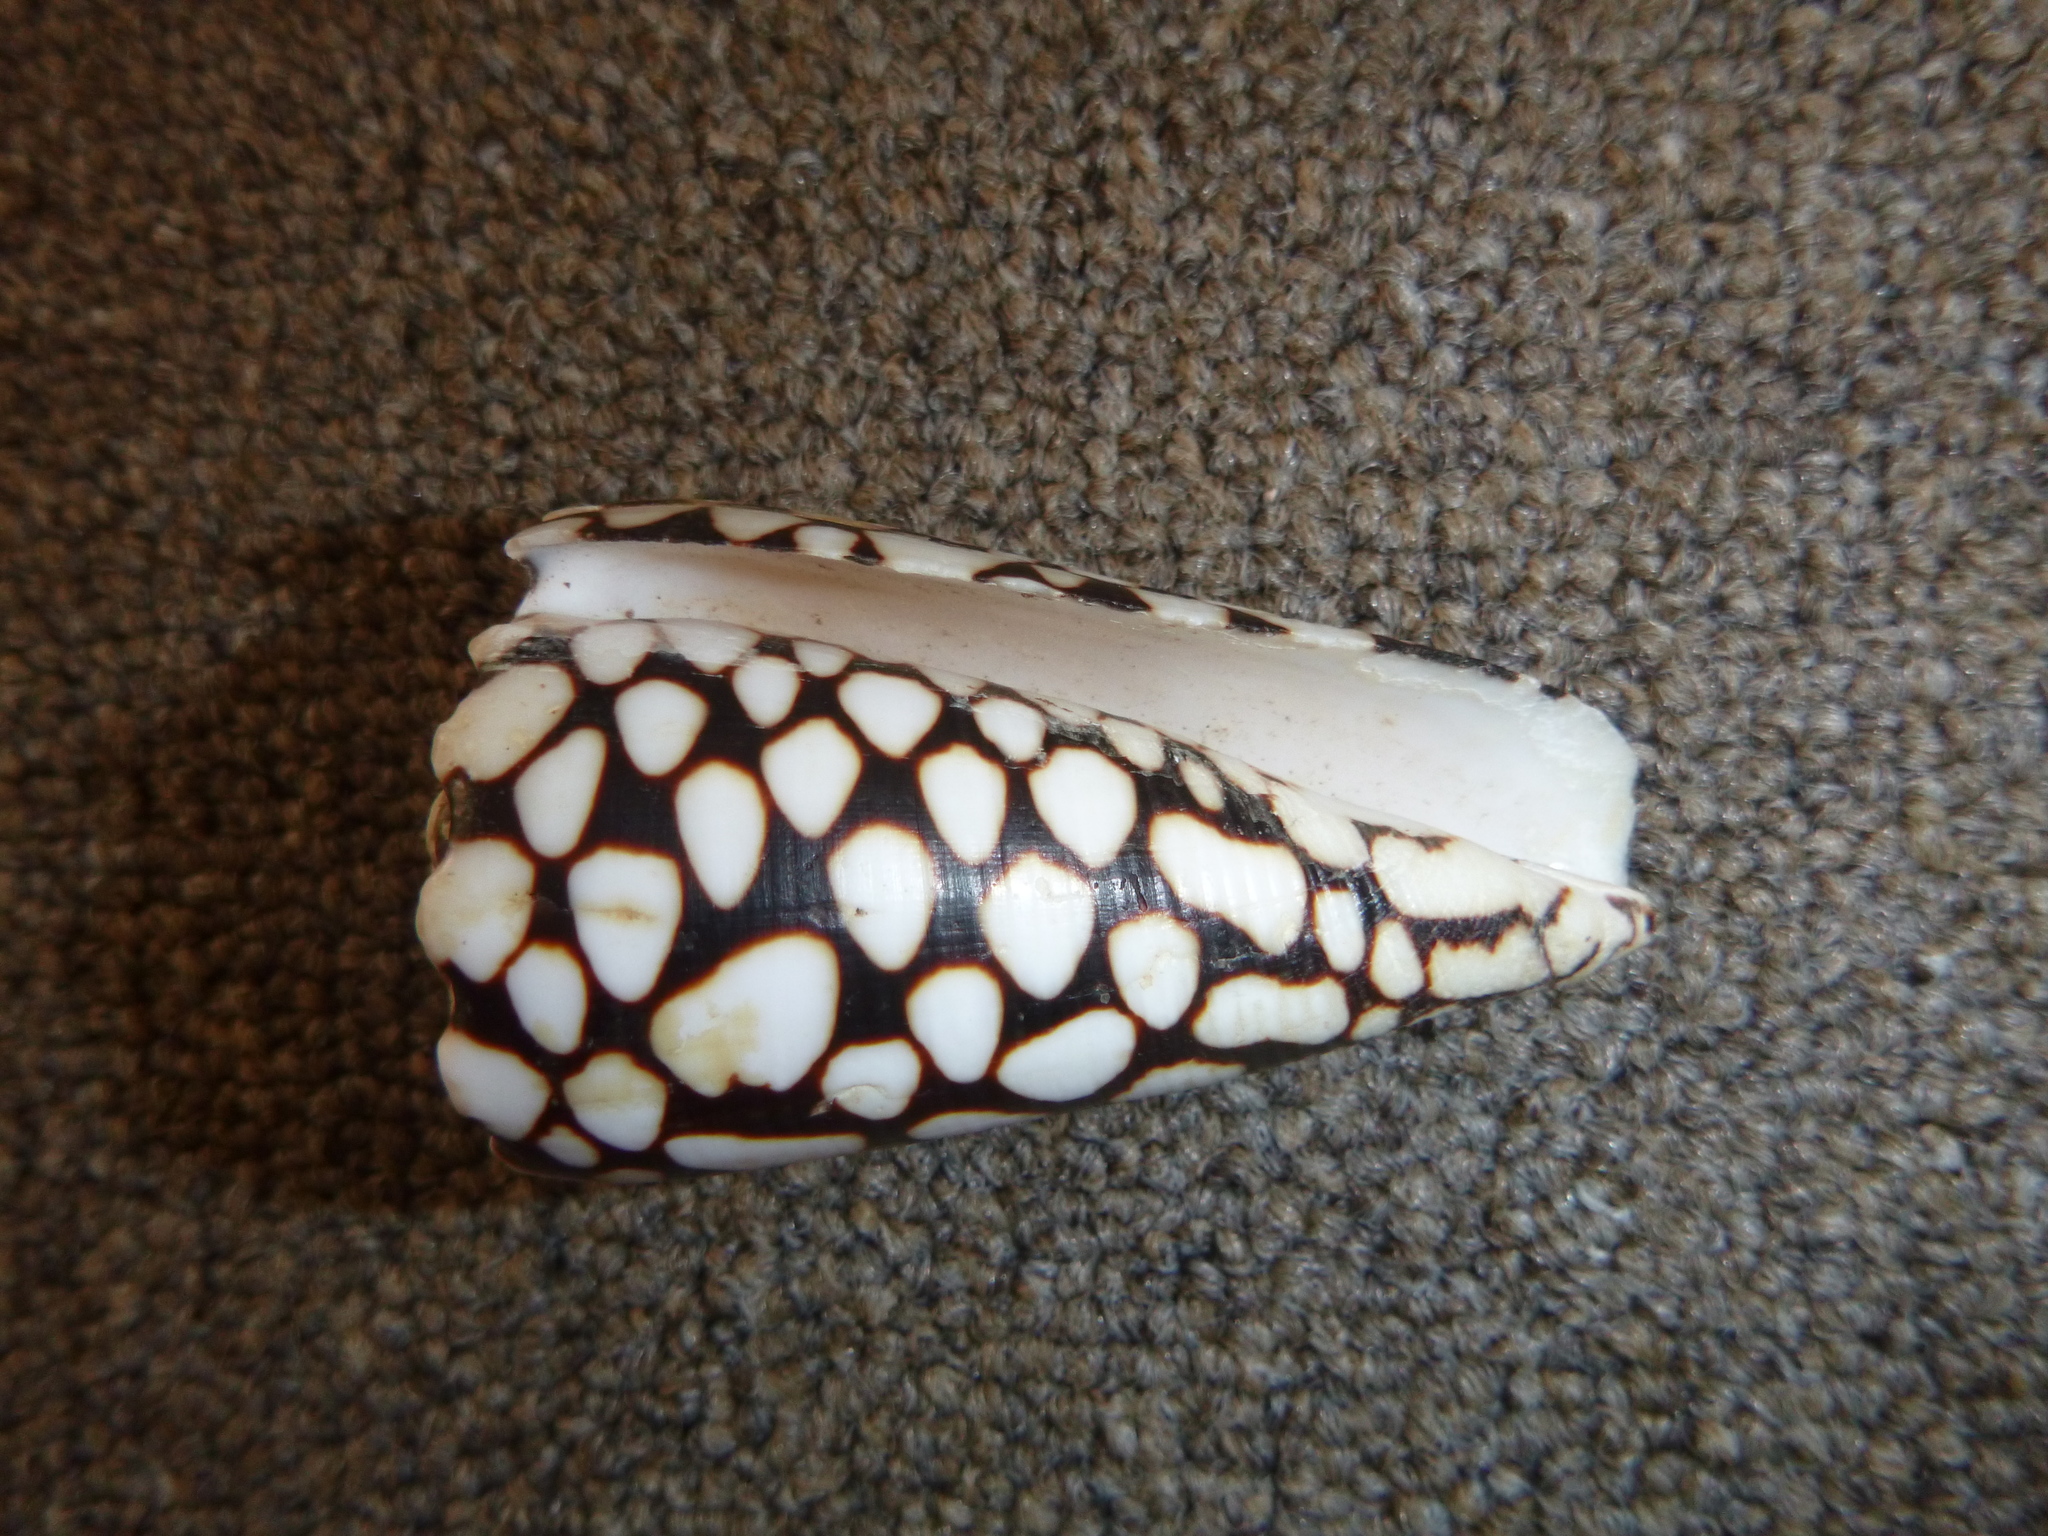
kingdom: Animalia
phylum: Mollusca
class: Gastropoda
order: Neogastropoda
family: Conidae
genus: Conus
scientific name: Conus marmoreus
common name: Marbled cone
